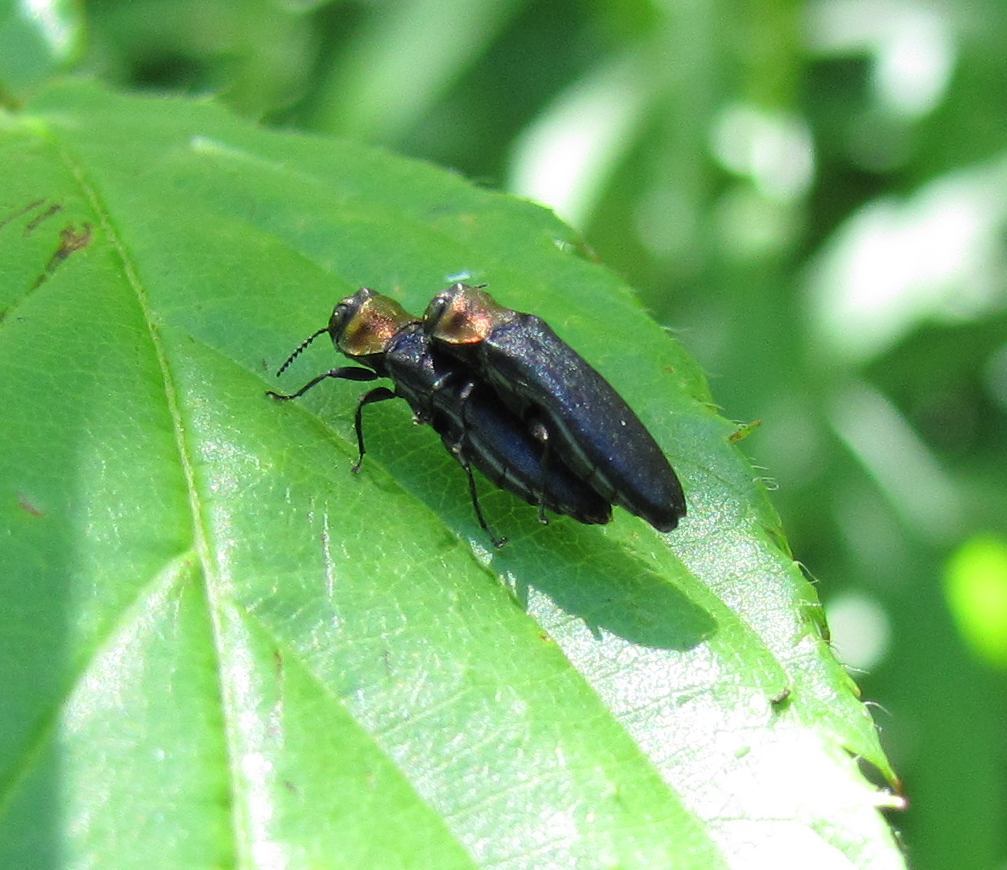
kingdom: Animalia
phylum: Arthropoda
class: Insecta
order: Coleoptera
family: Buprestidae
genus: Agrilus
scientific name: Agrilus ruficollis
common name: Red-necked cane borer beetle
